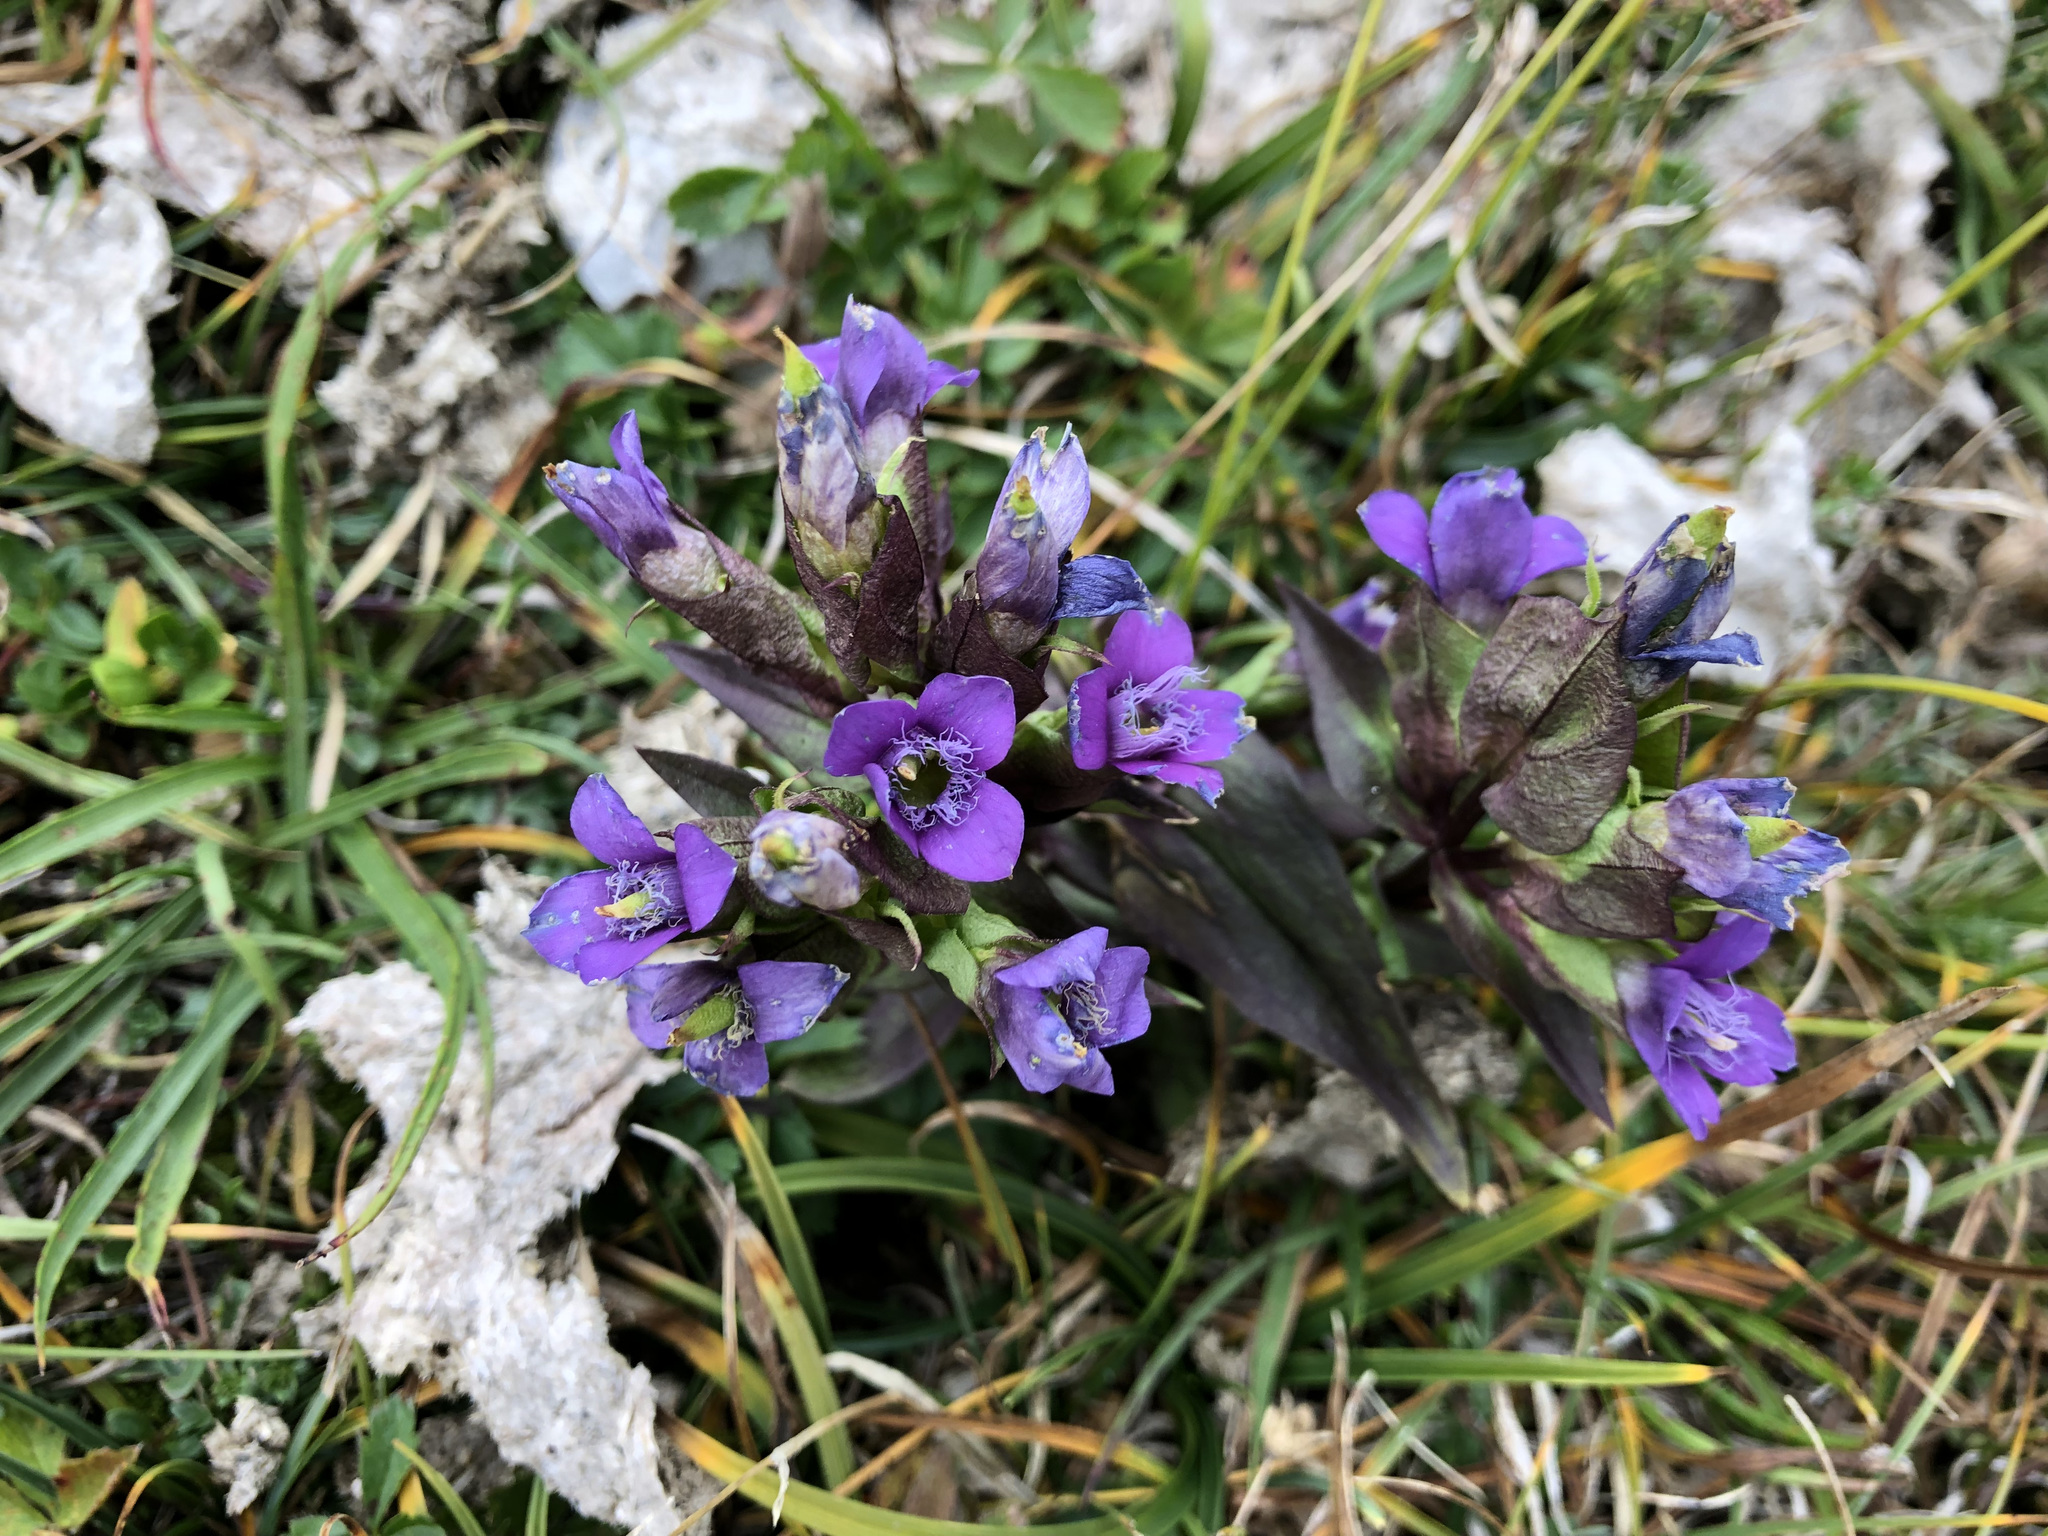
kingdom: Plantae
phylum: Tracheophyta
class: Magnoliopsida
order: Gentianales
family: Gentianaceae
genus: Gentianella
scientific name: Gentianella campestris
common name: Field gentian
